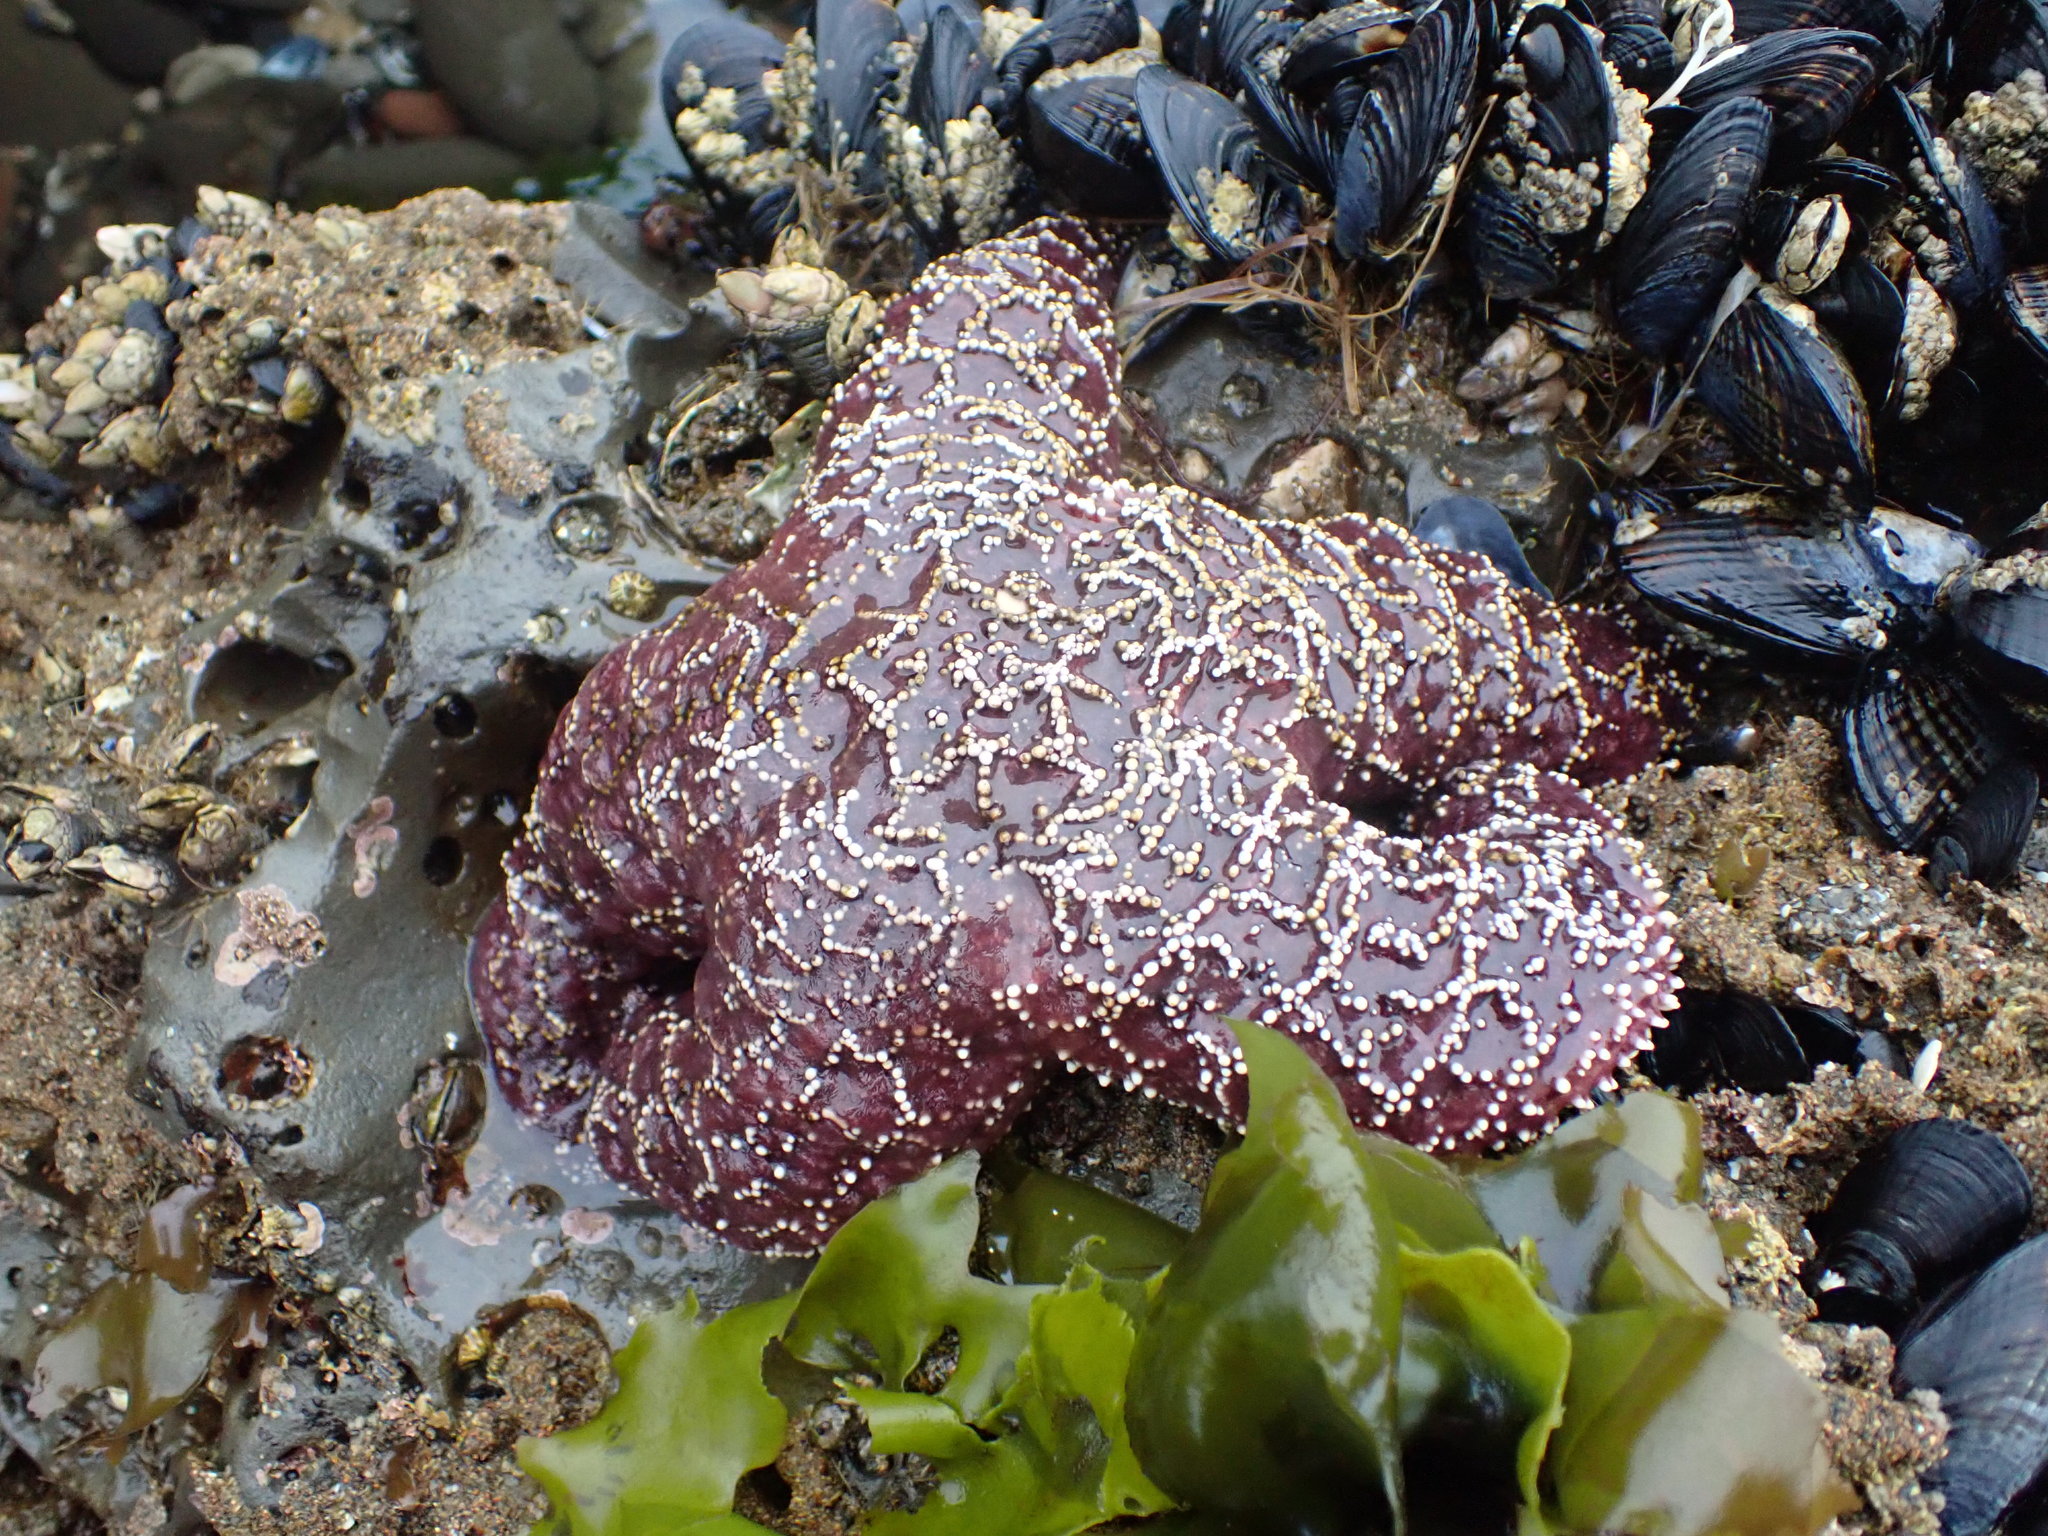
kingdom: Animalia
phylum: Echinodermata
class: Asteroidea
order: Forcipulatida
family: Asteriidae
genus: Pisaster
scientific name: Pisaster ochraceus
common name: Ochre stars
